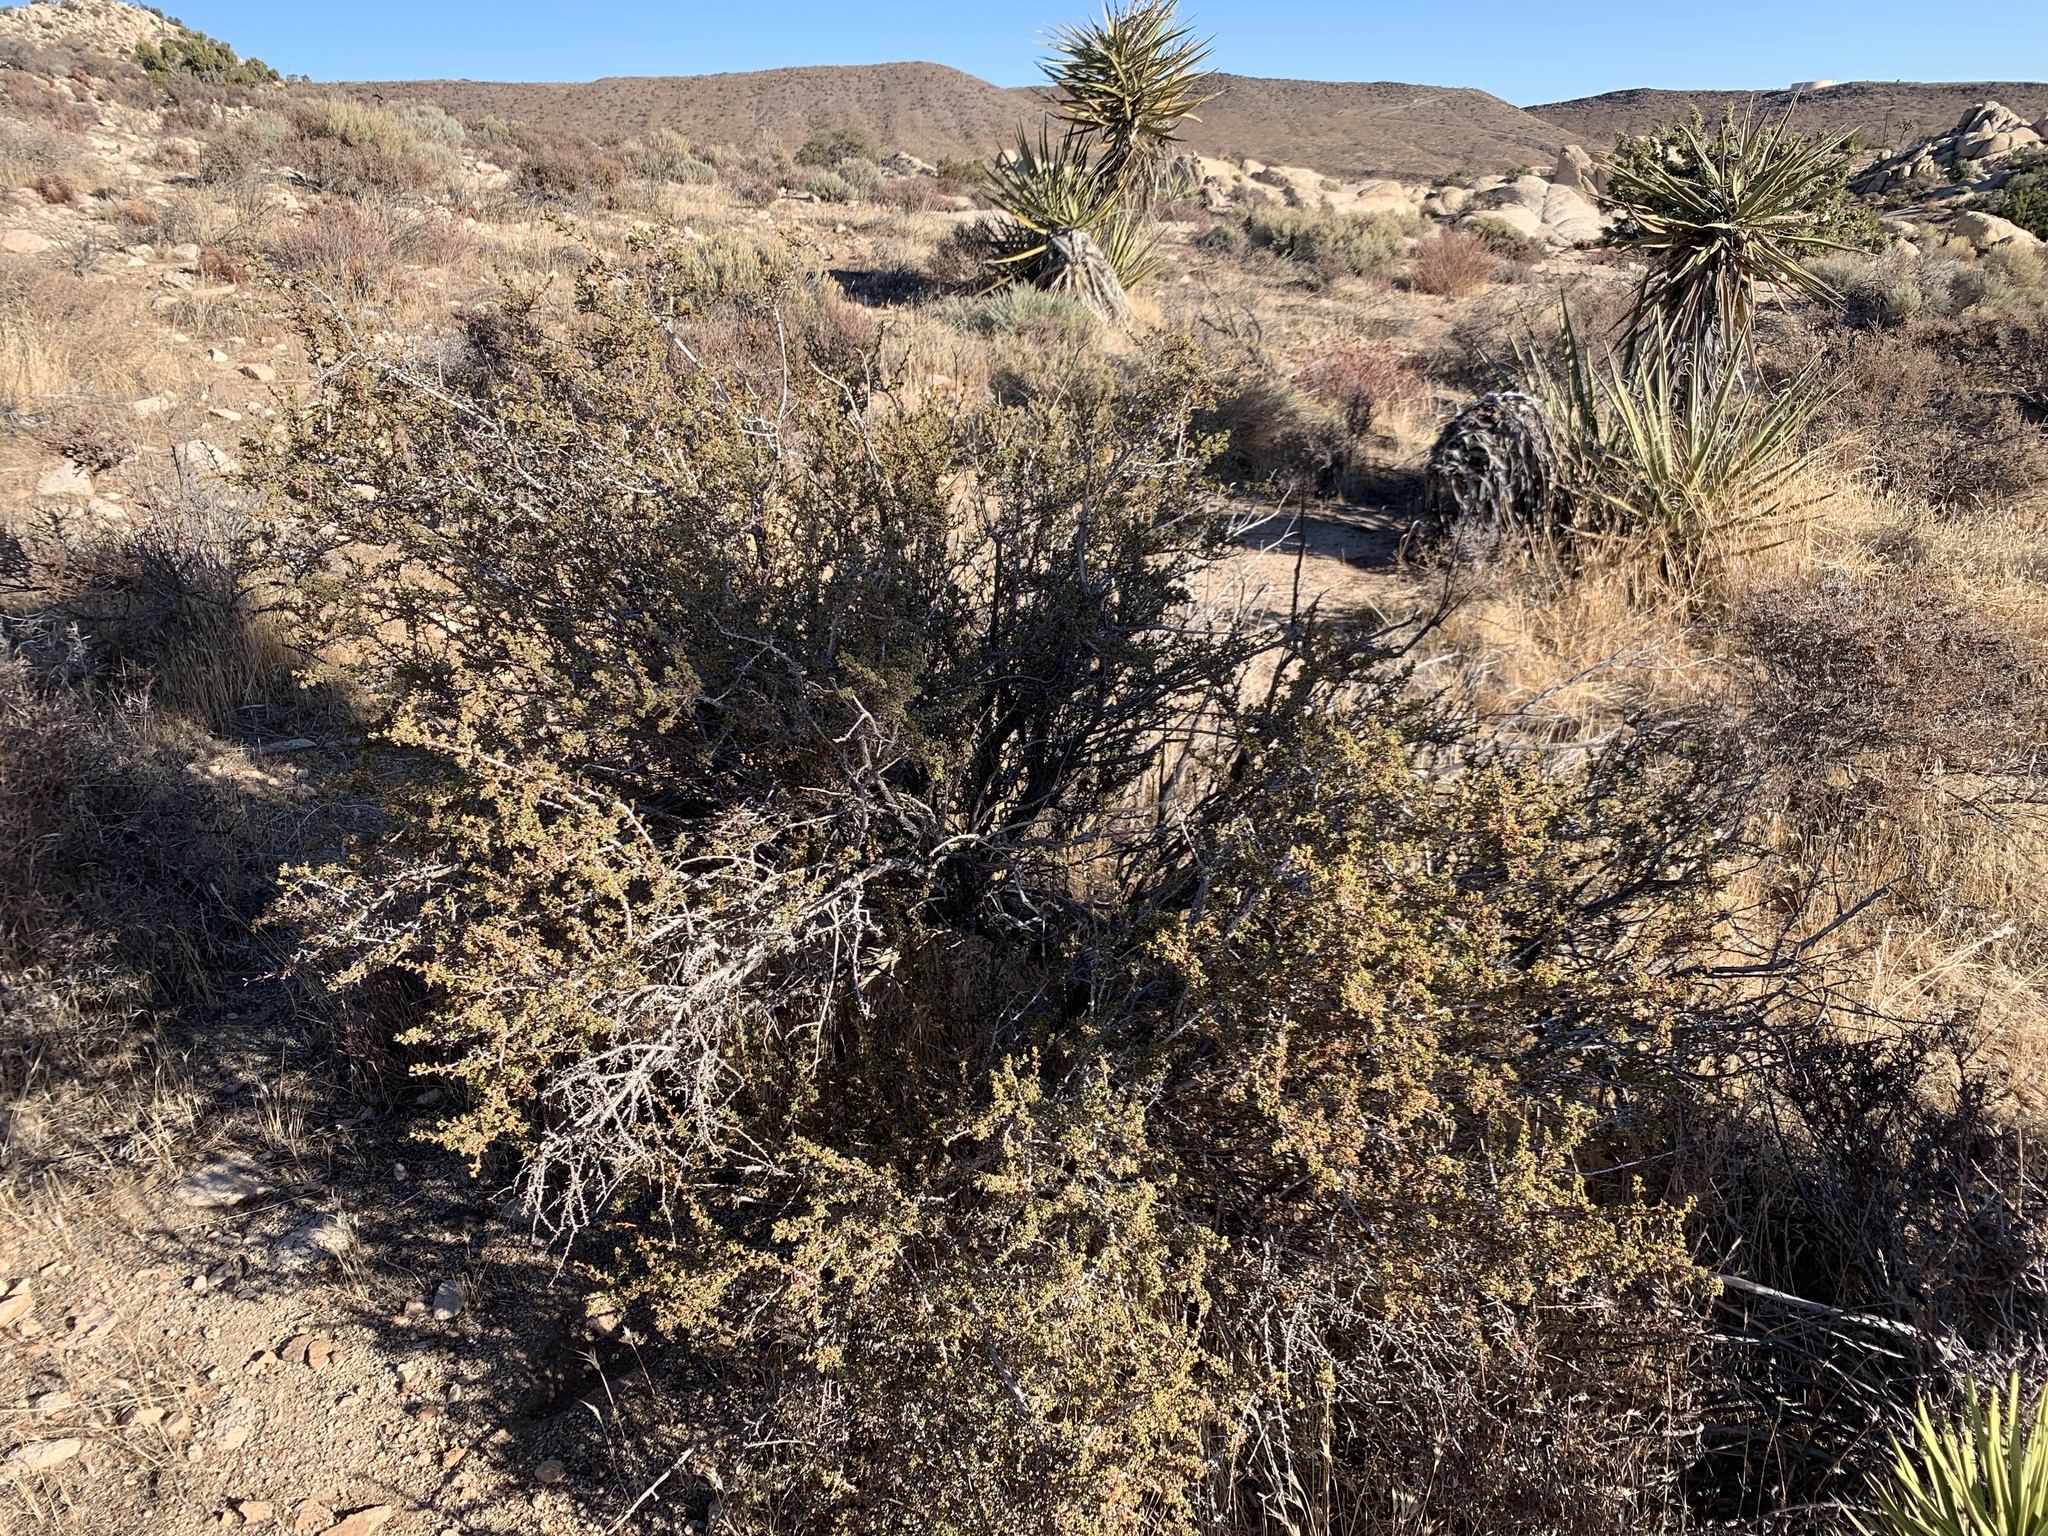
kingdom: Plantae
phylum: Tracheophyta
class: Magnoliopsida
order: Rosales
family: Rosaceae
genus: Purshia
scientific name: Purshia glandulosa
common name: Desert bitterbrush
